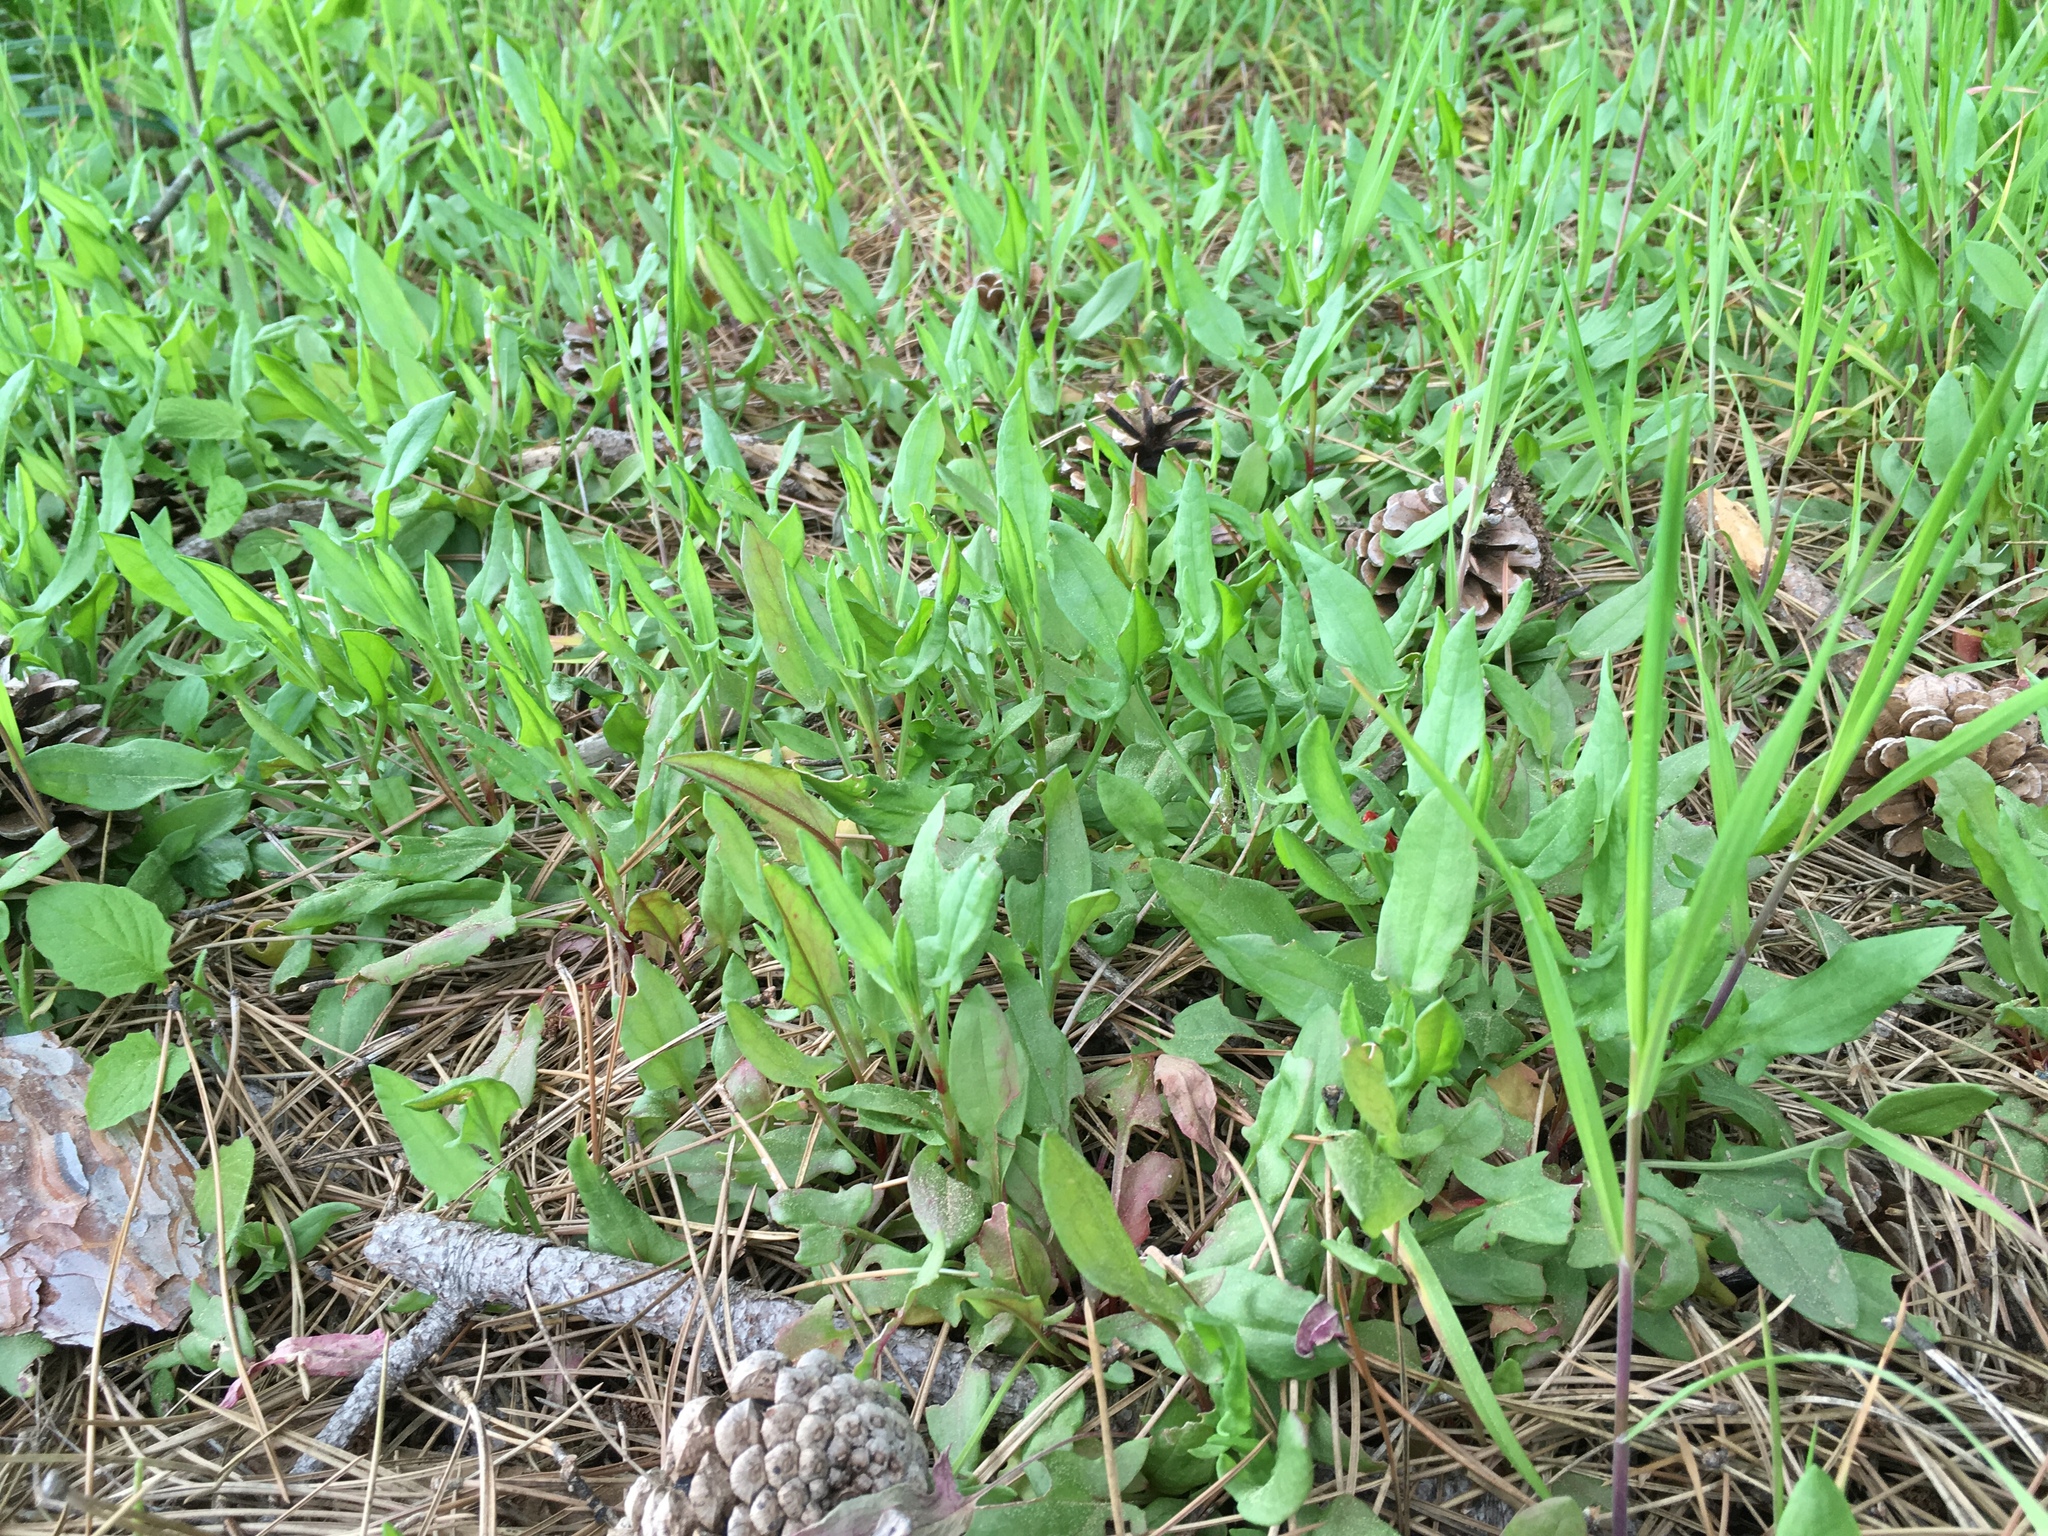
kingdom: Plantae
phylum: Tracheophyta
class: Magnoliopsida
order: Caryophyllales
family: Polygonaceae
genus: Rumex
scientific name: Rumex acetosella
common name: Common sheep sorrel
